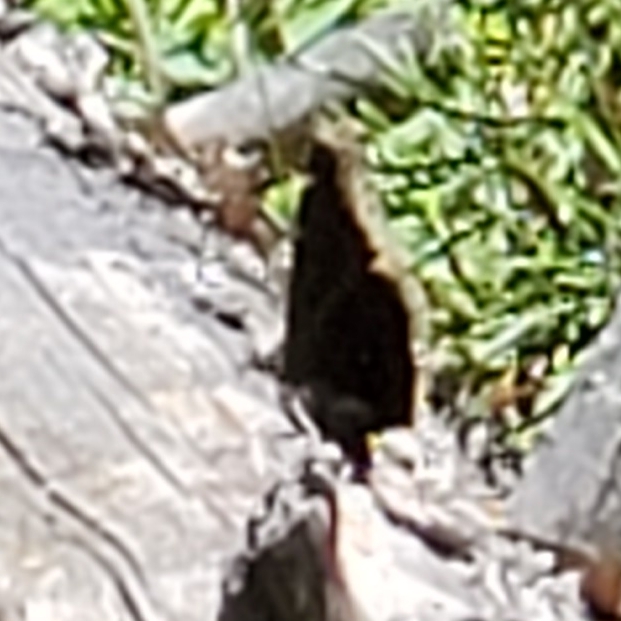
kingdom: Animalia
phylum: Arthropoda
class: Insecta
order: Lepidoptera
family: Nymphalidae
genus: Nymphalis
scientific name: Nymphalis antiopa
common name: Camberwell beauty
